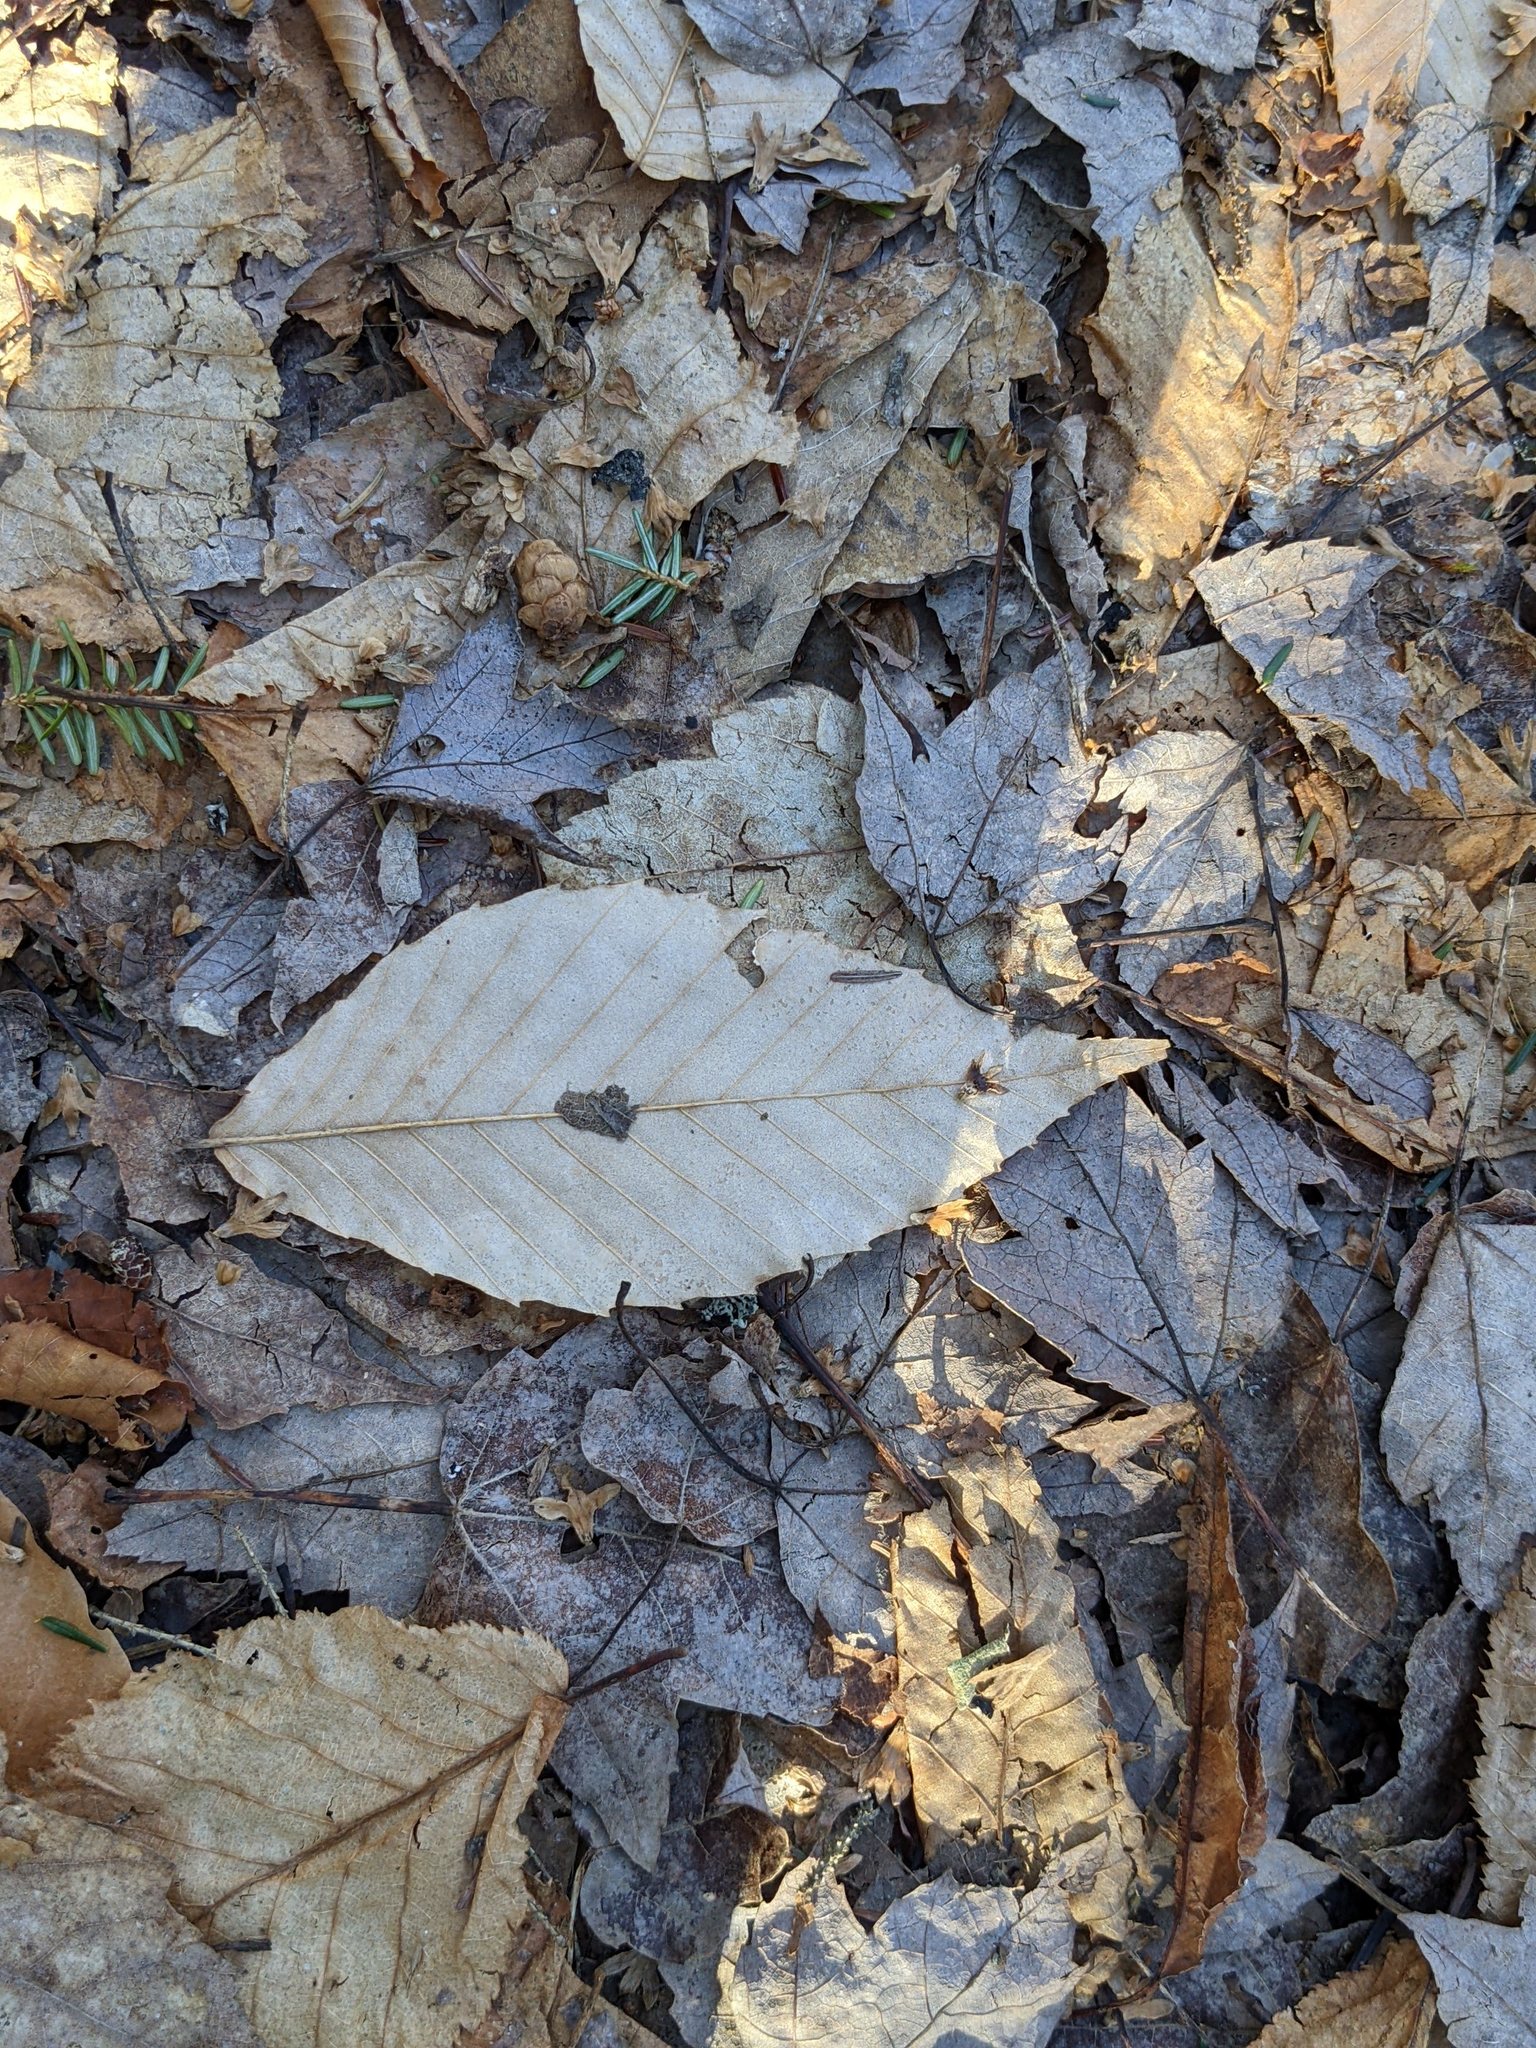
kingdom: Plantae
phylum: Tracheophyta
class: Magnoliopsida
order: Fagales
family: Fagaceae
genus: Fagus
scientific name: Fagus grandifolia
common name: American beech
